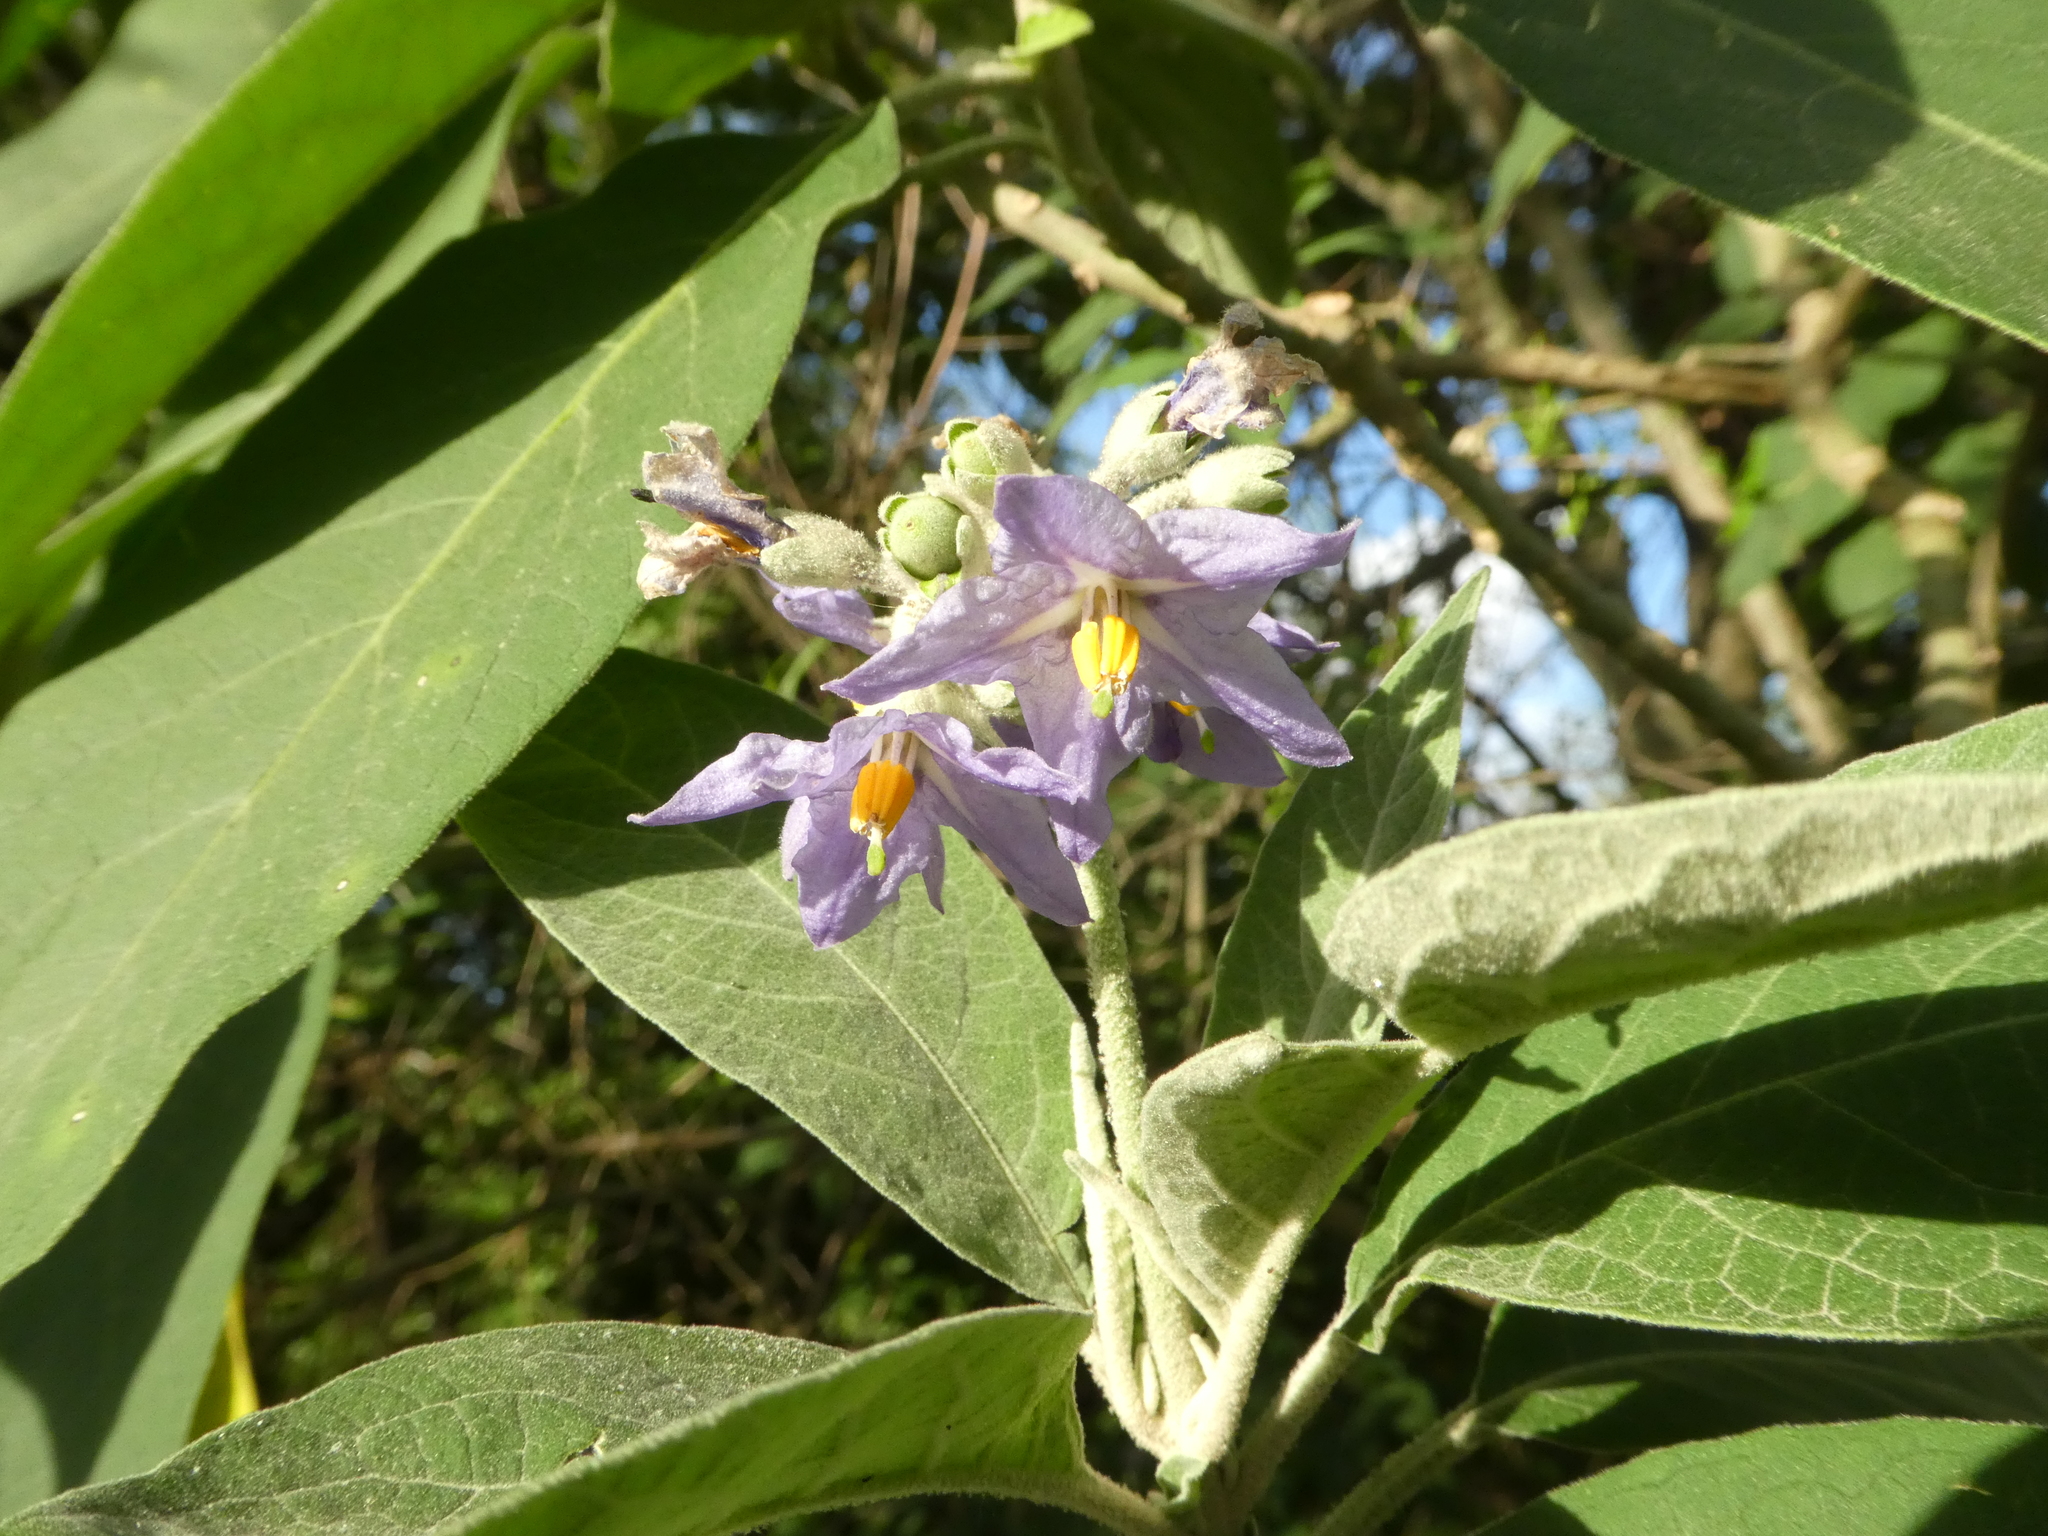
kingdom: Plantae
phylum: Tracheophyta
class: Magnoliopsida
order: Solanales
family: Solanaceae
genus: Solanum
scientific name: Solanum granulosoleprosum
